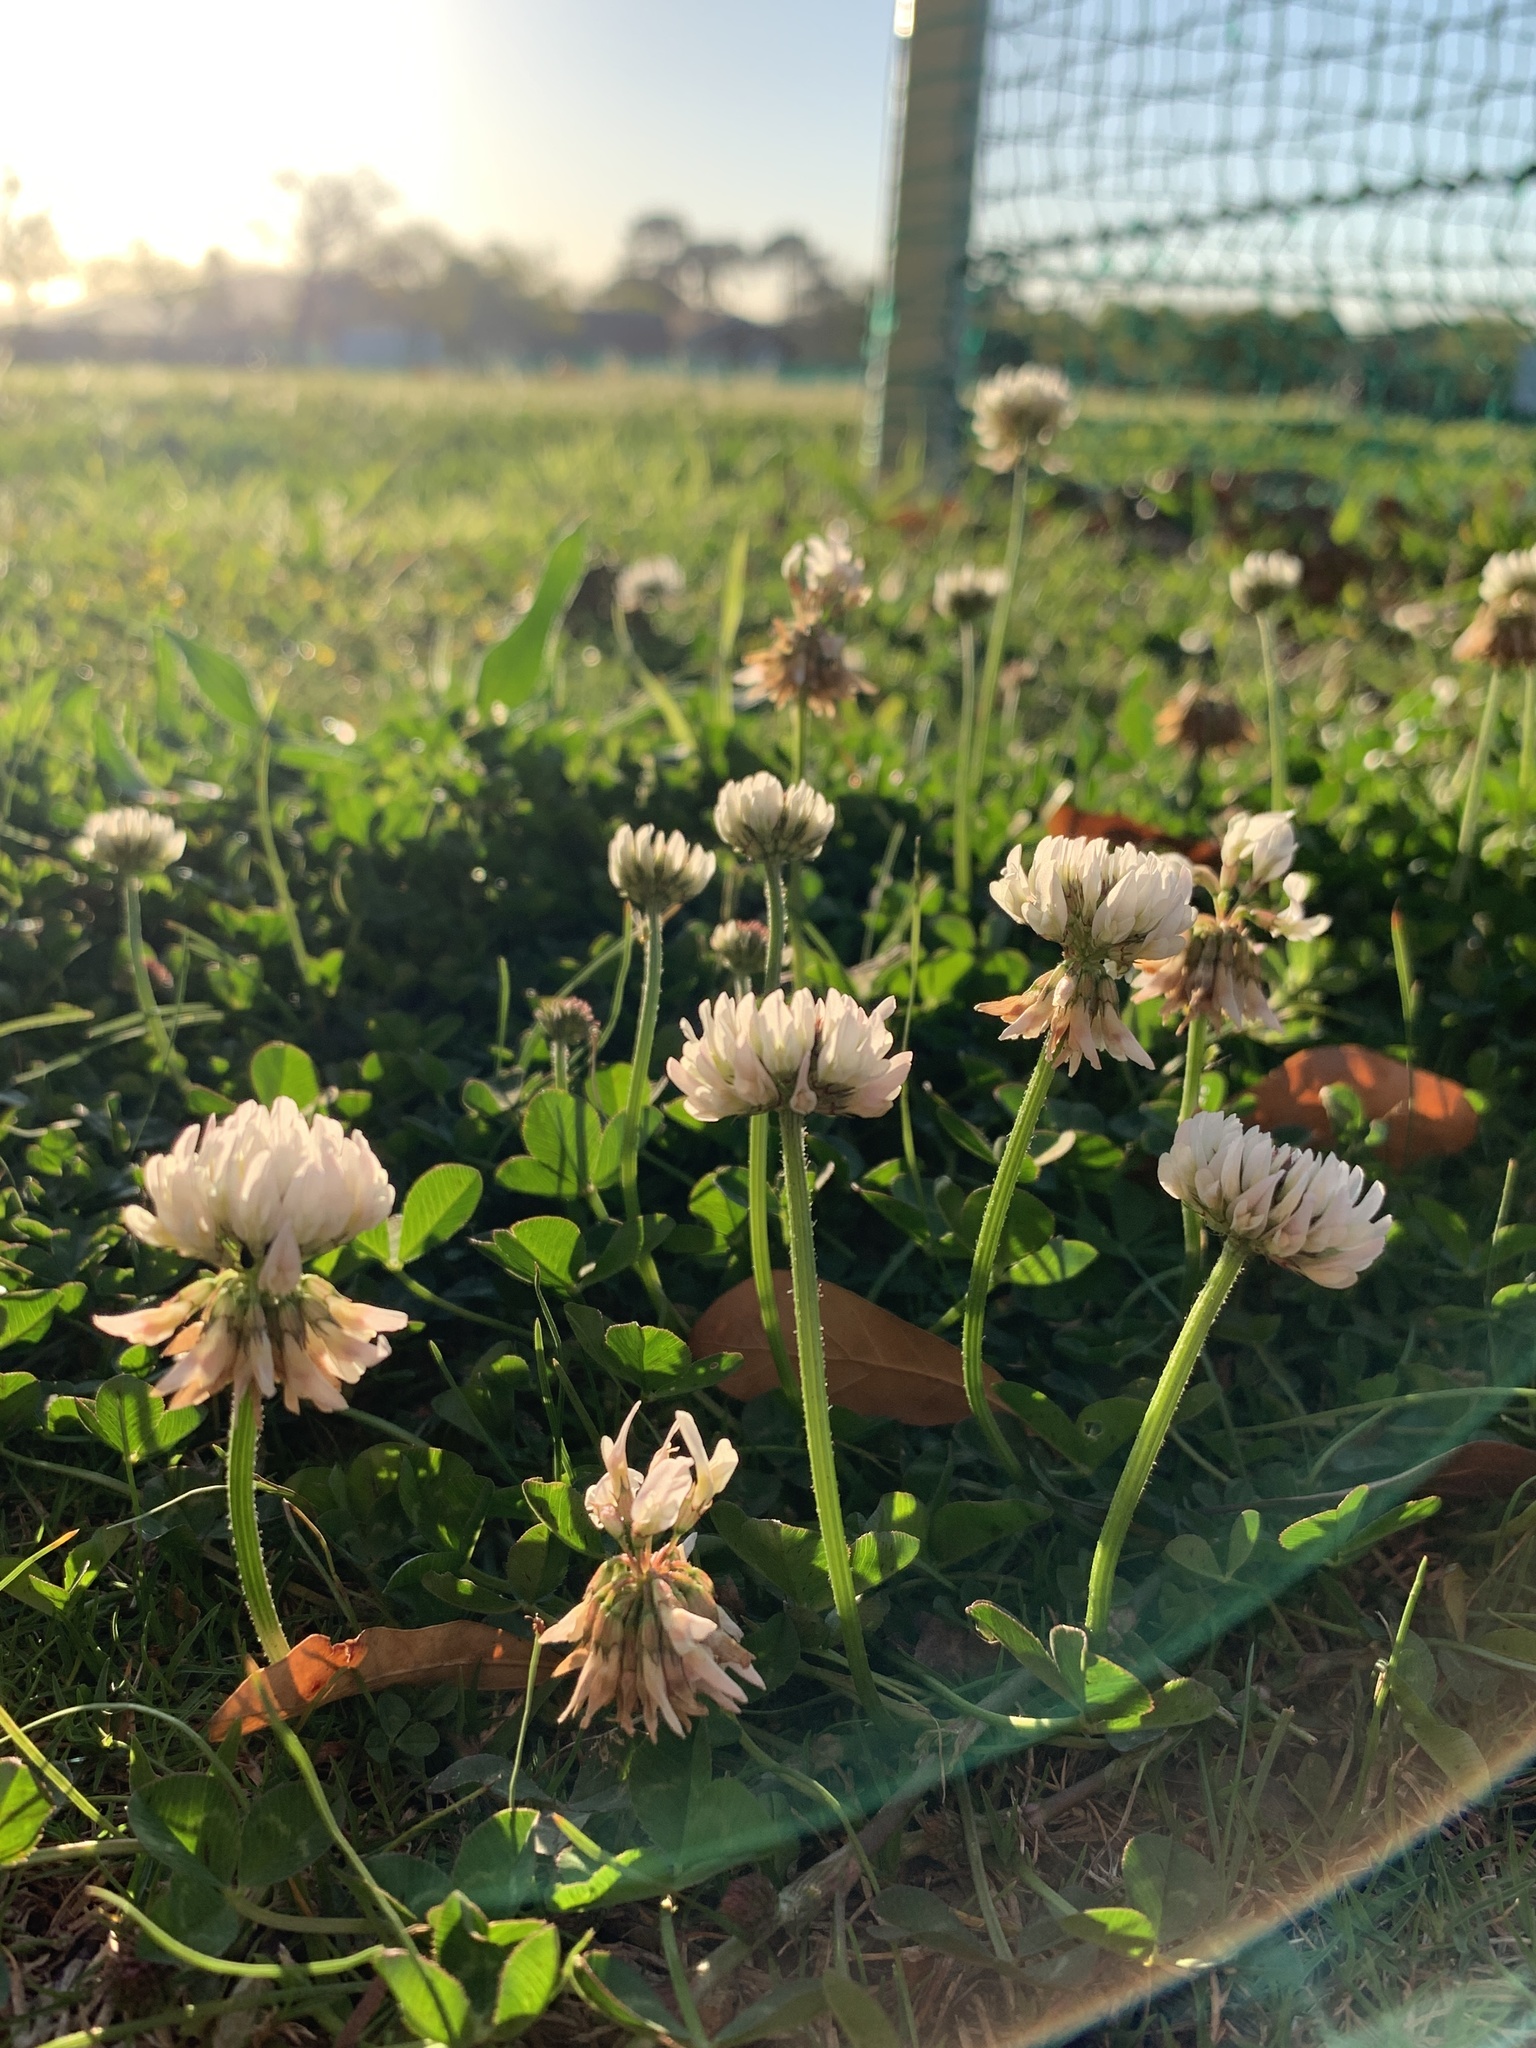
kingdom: Plantae
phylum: Tracheophyta
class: Magnoliopsida
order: Fabales
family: Fabaceae
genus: Trifolium
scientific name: Trifolium repens
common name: White clover
